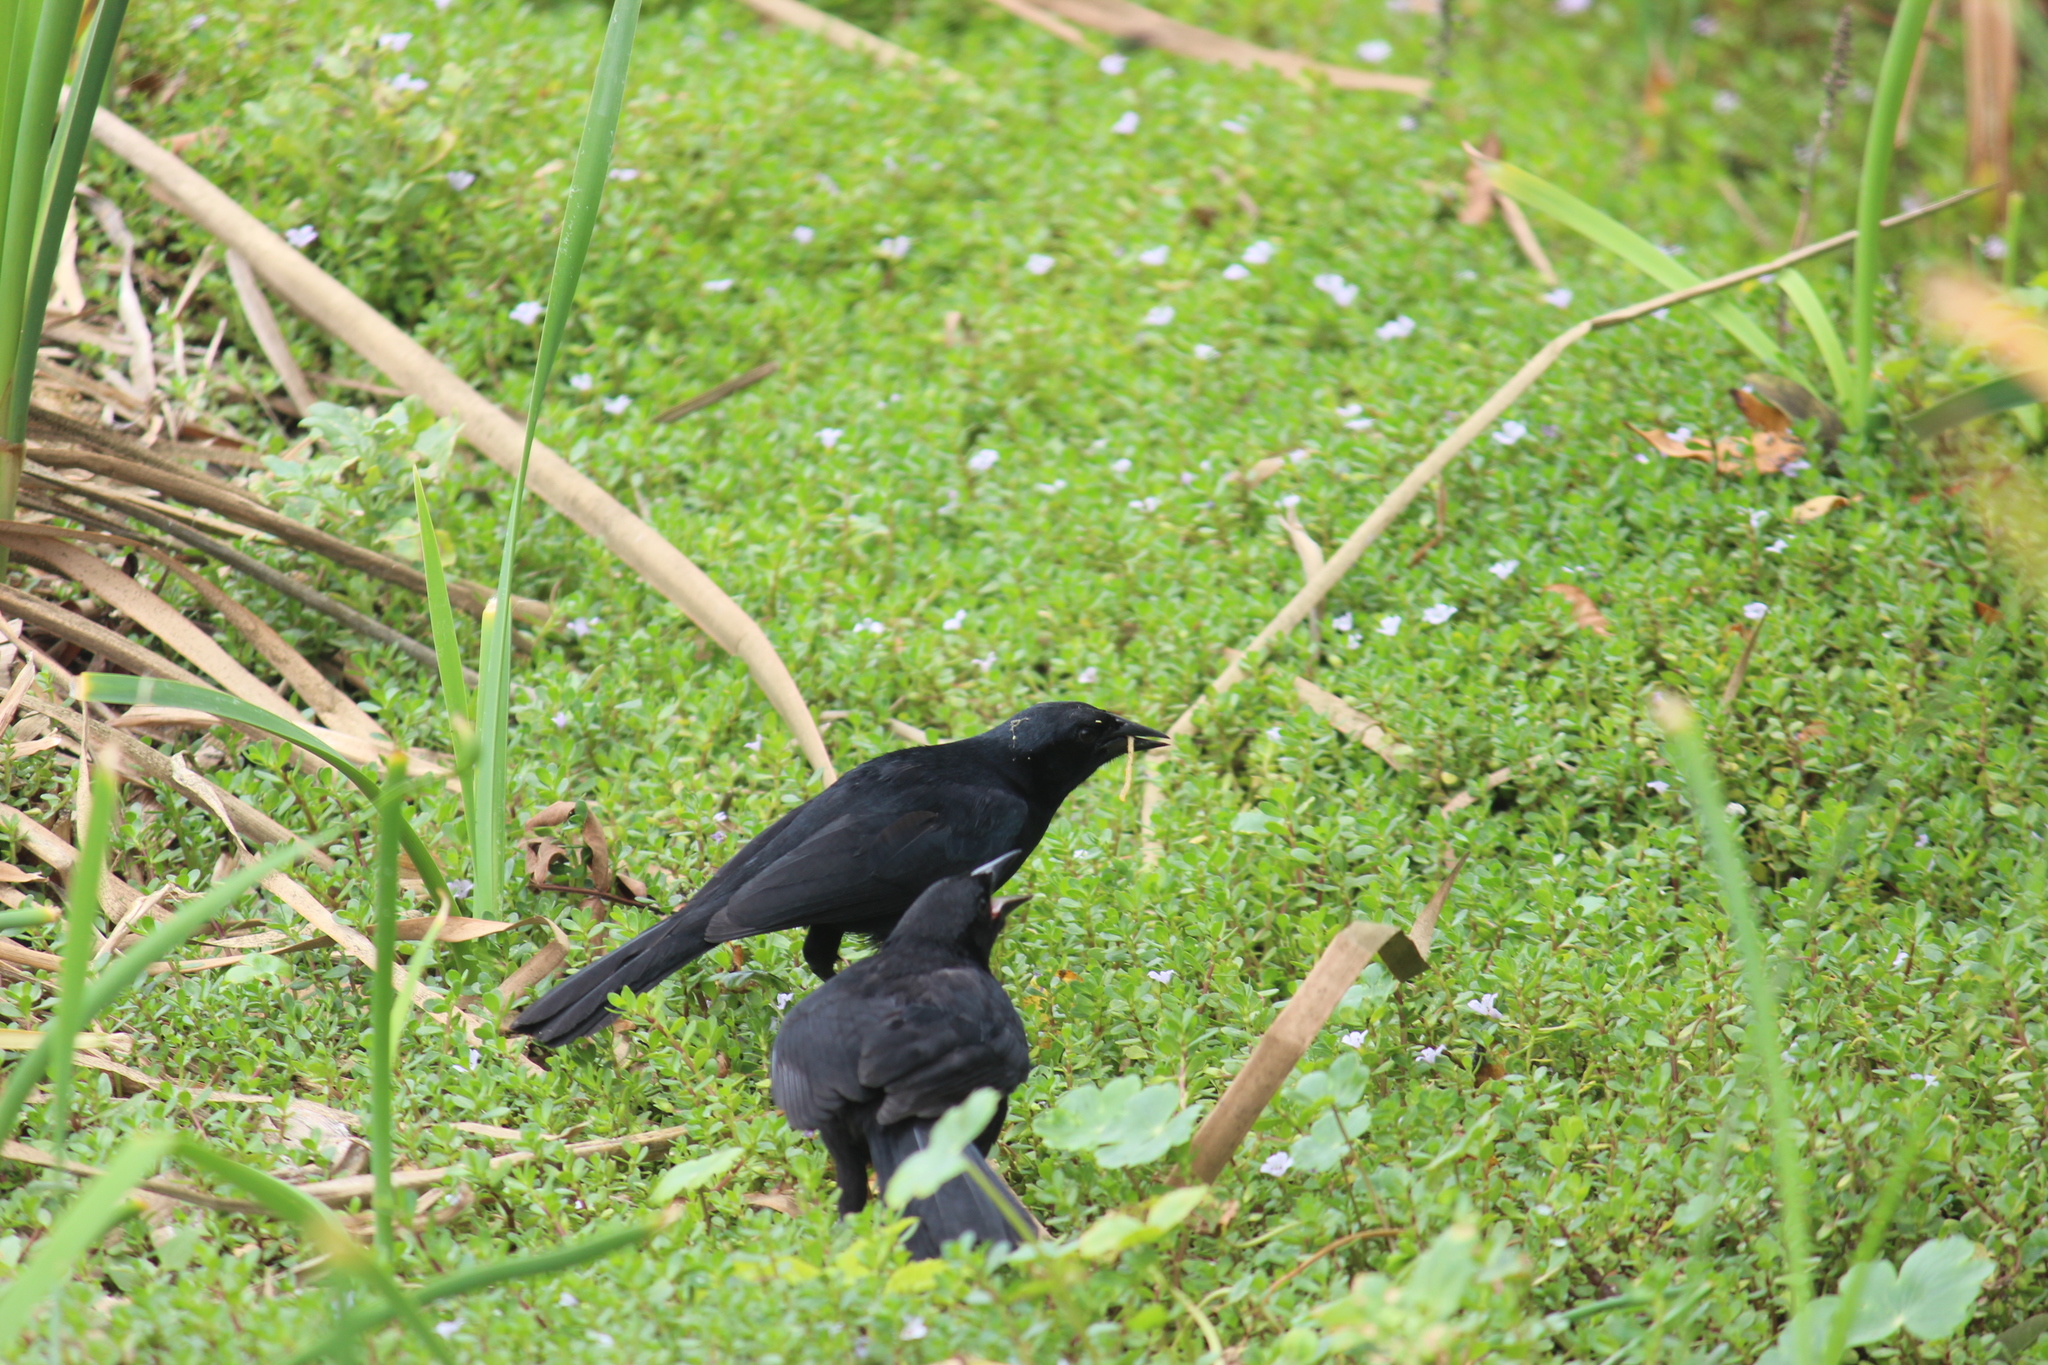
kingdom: Animalia
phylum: Chordata
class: Aves
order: Passeriformes
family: Icteridae
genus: Dives
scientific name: Dives warczewiczi
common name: Scrub blackbird
